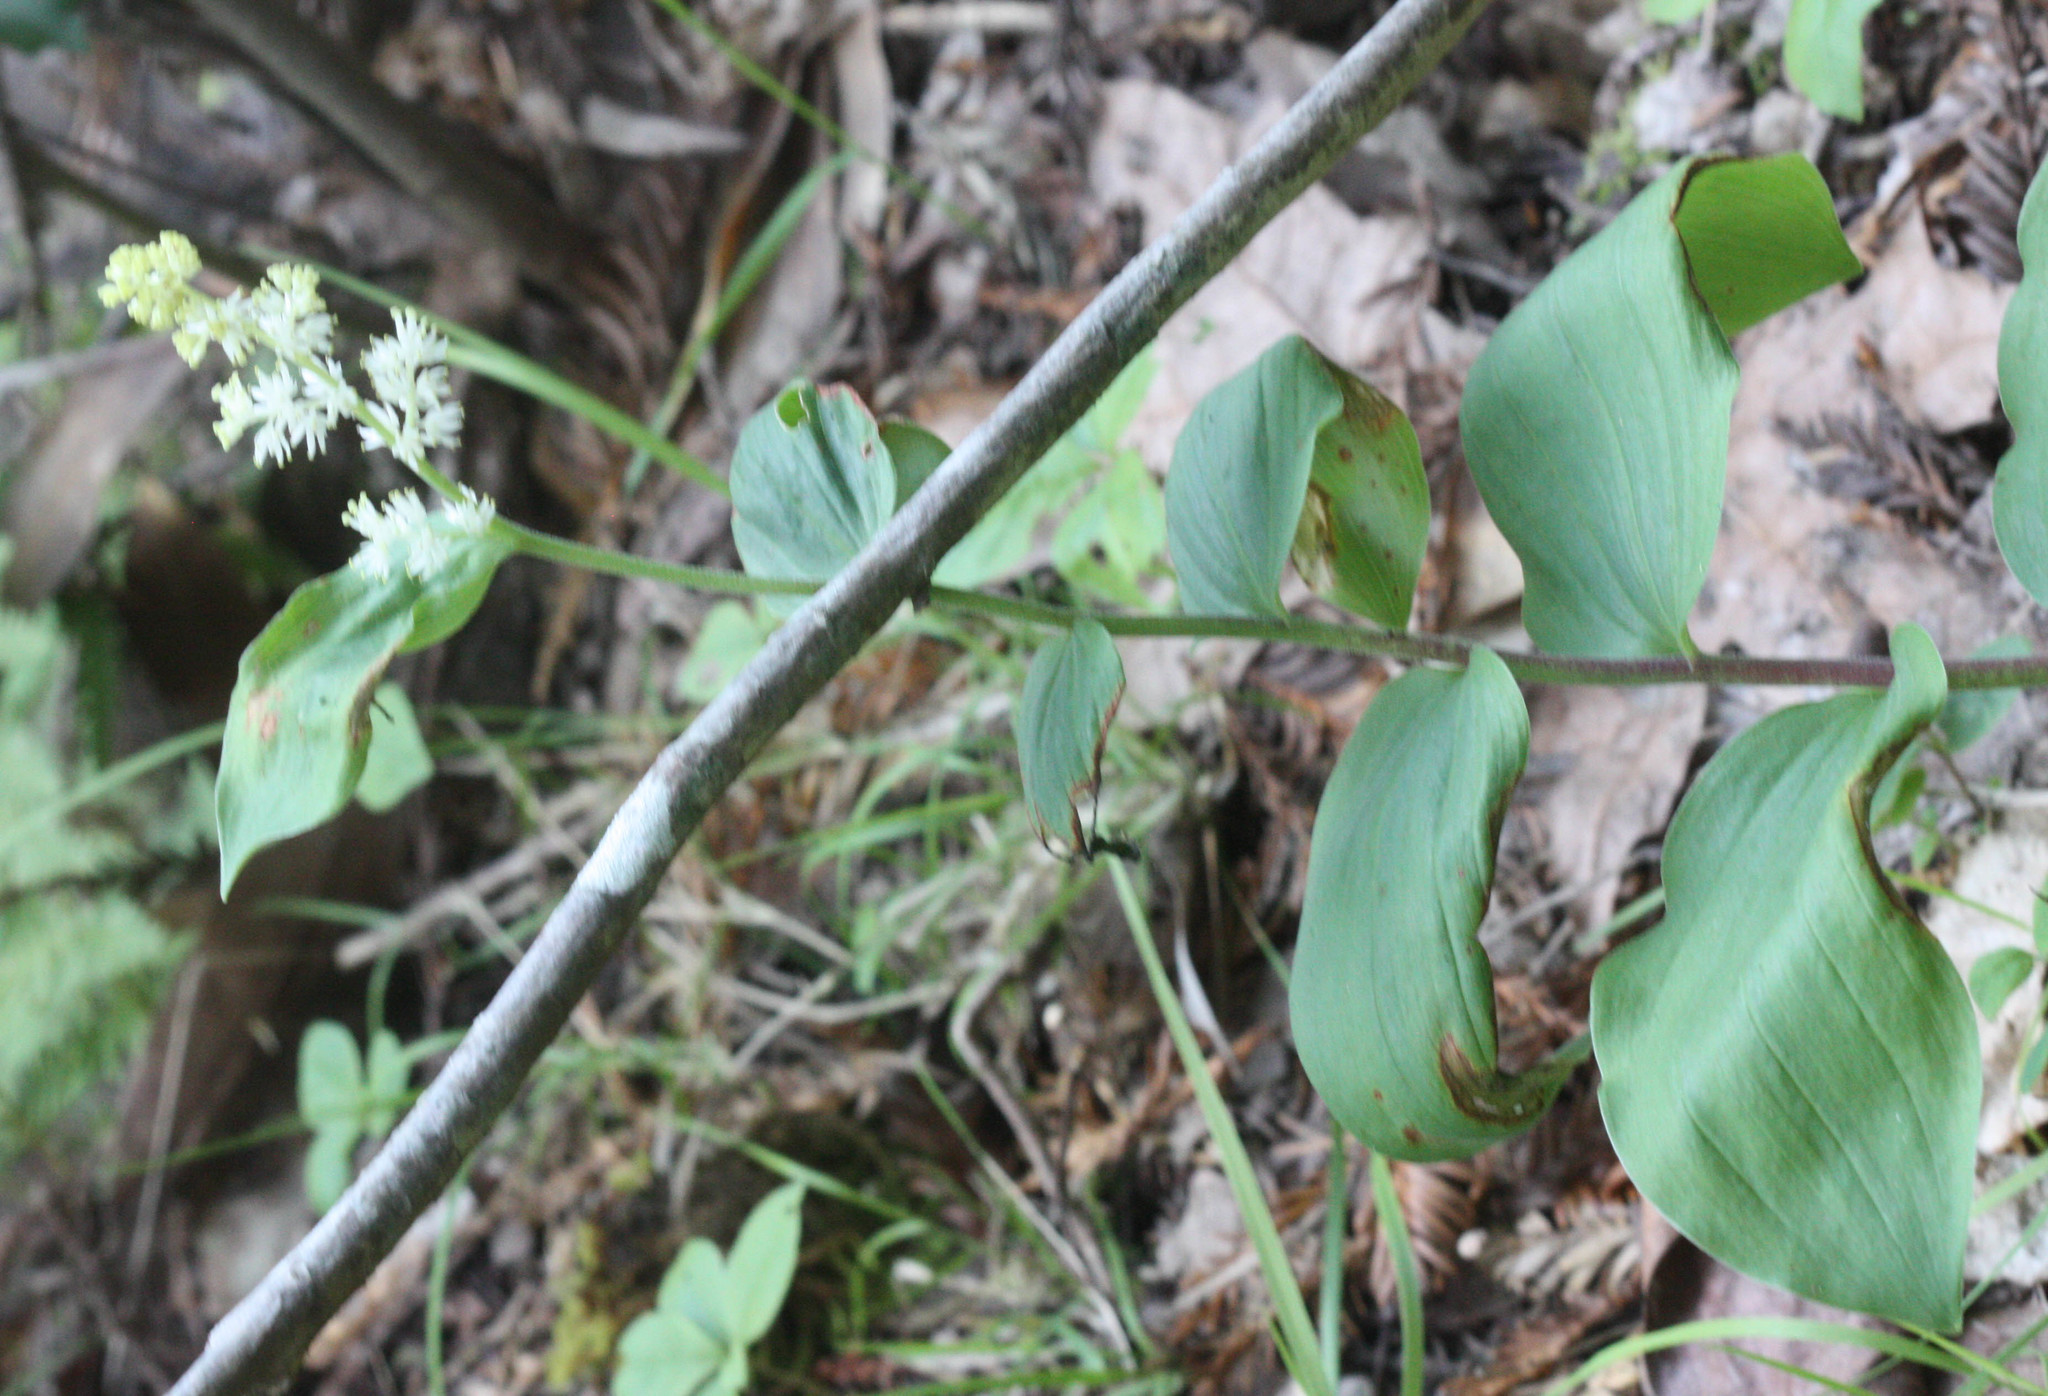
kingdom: Plantae
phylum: Tracheophyta
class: Liliopsida
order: Asparagales
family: Asparagaceae
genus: Maianthemum
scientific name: Maianthemum racemosum
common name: False spikenard
